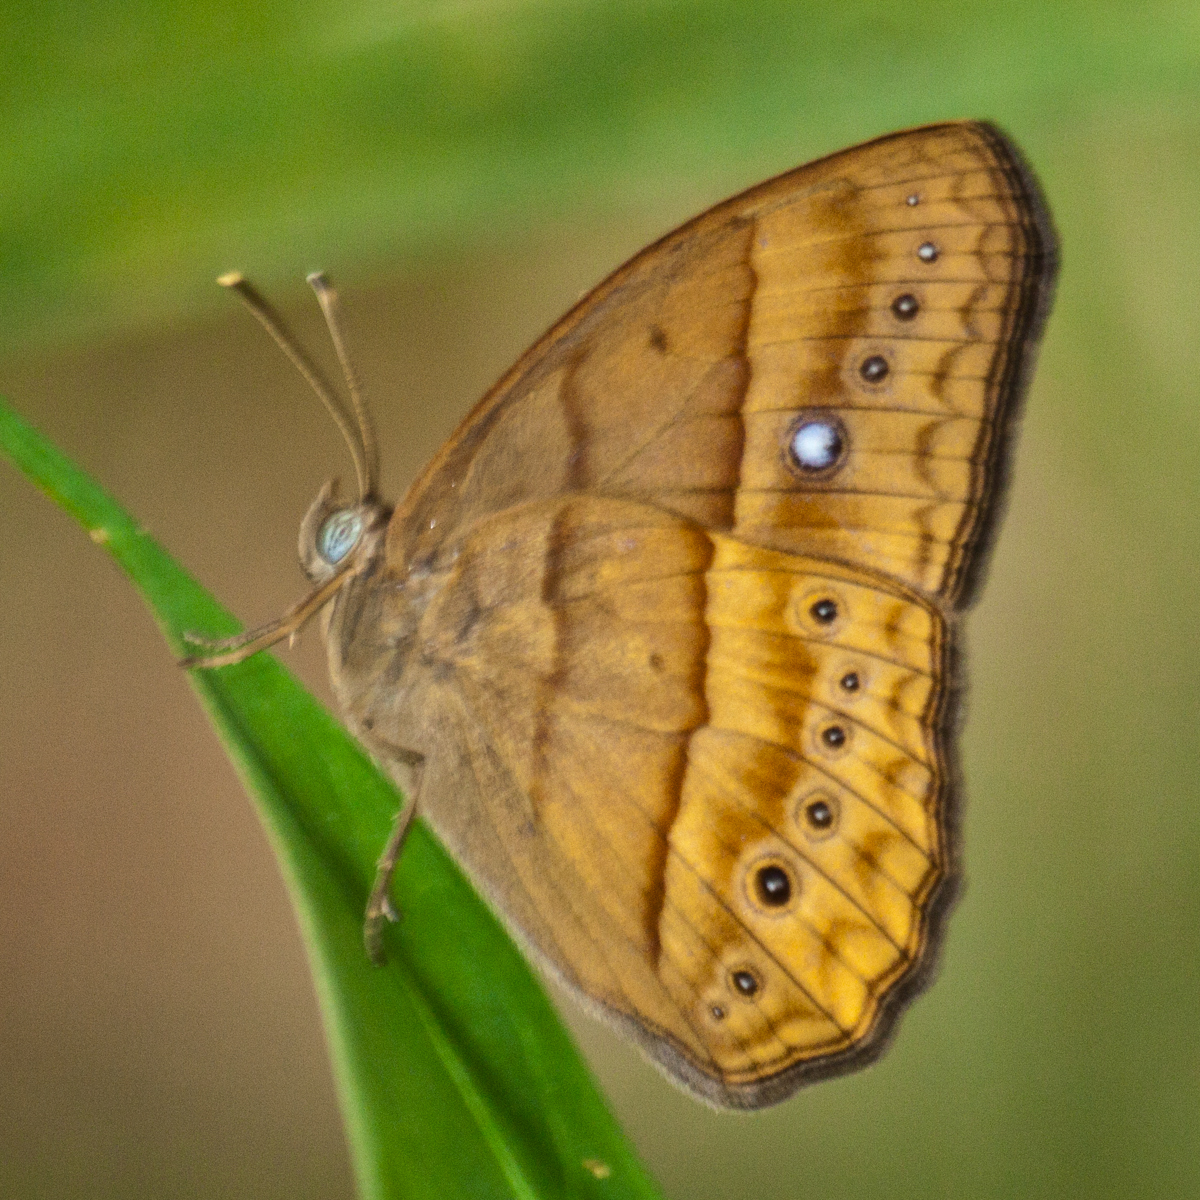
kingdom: Animalia
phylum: Arthropoda
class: Insecta
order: Lepidoptera
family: Nymphalidae
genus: Mycalesis
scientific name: Mycalesis mnasicles
